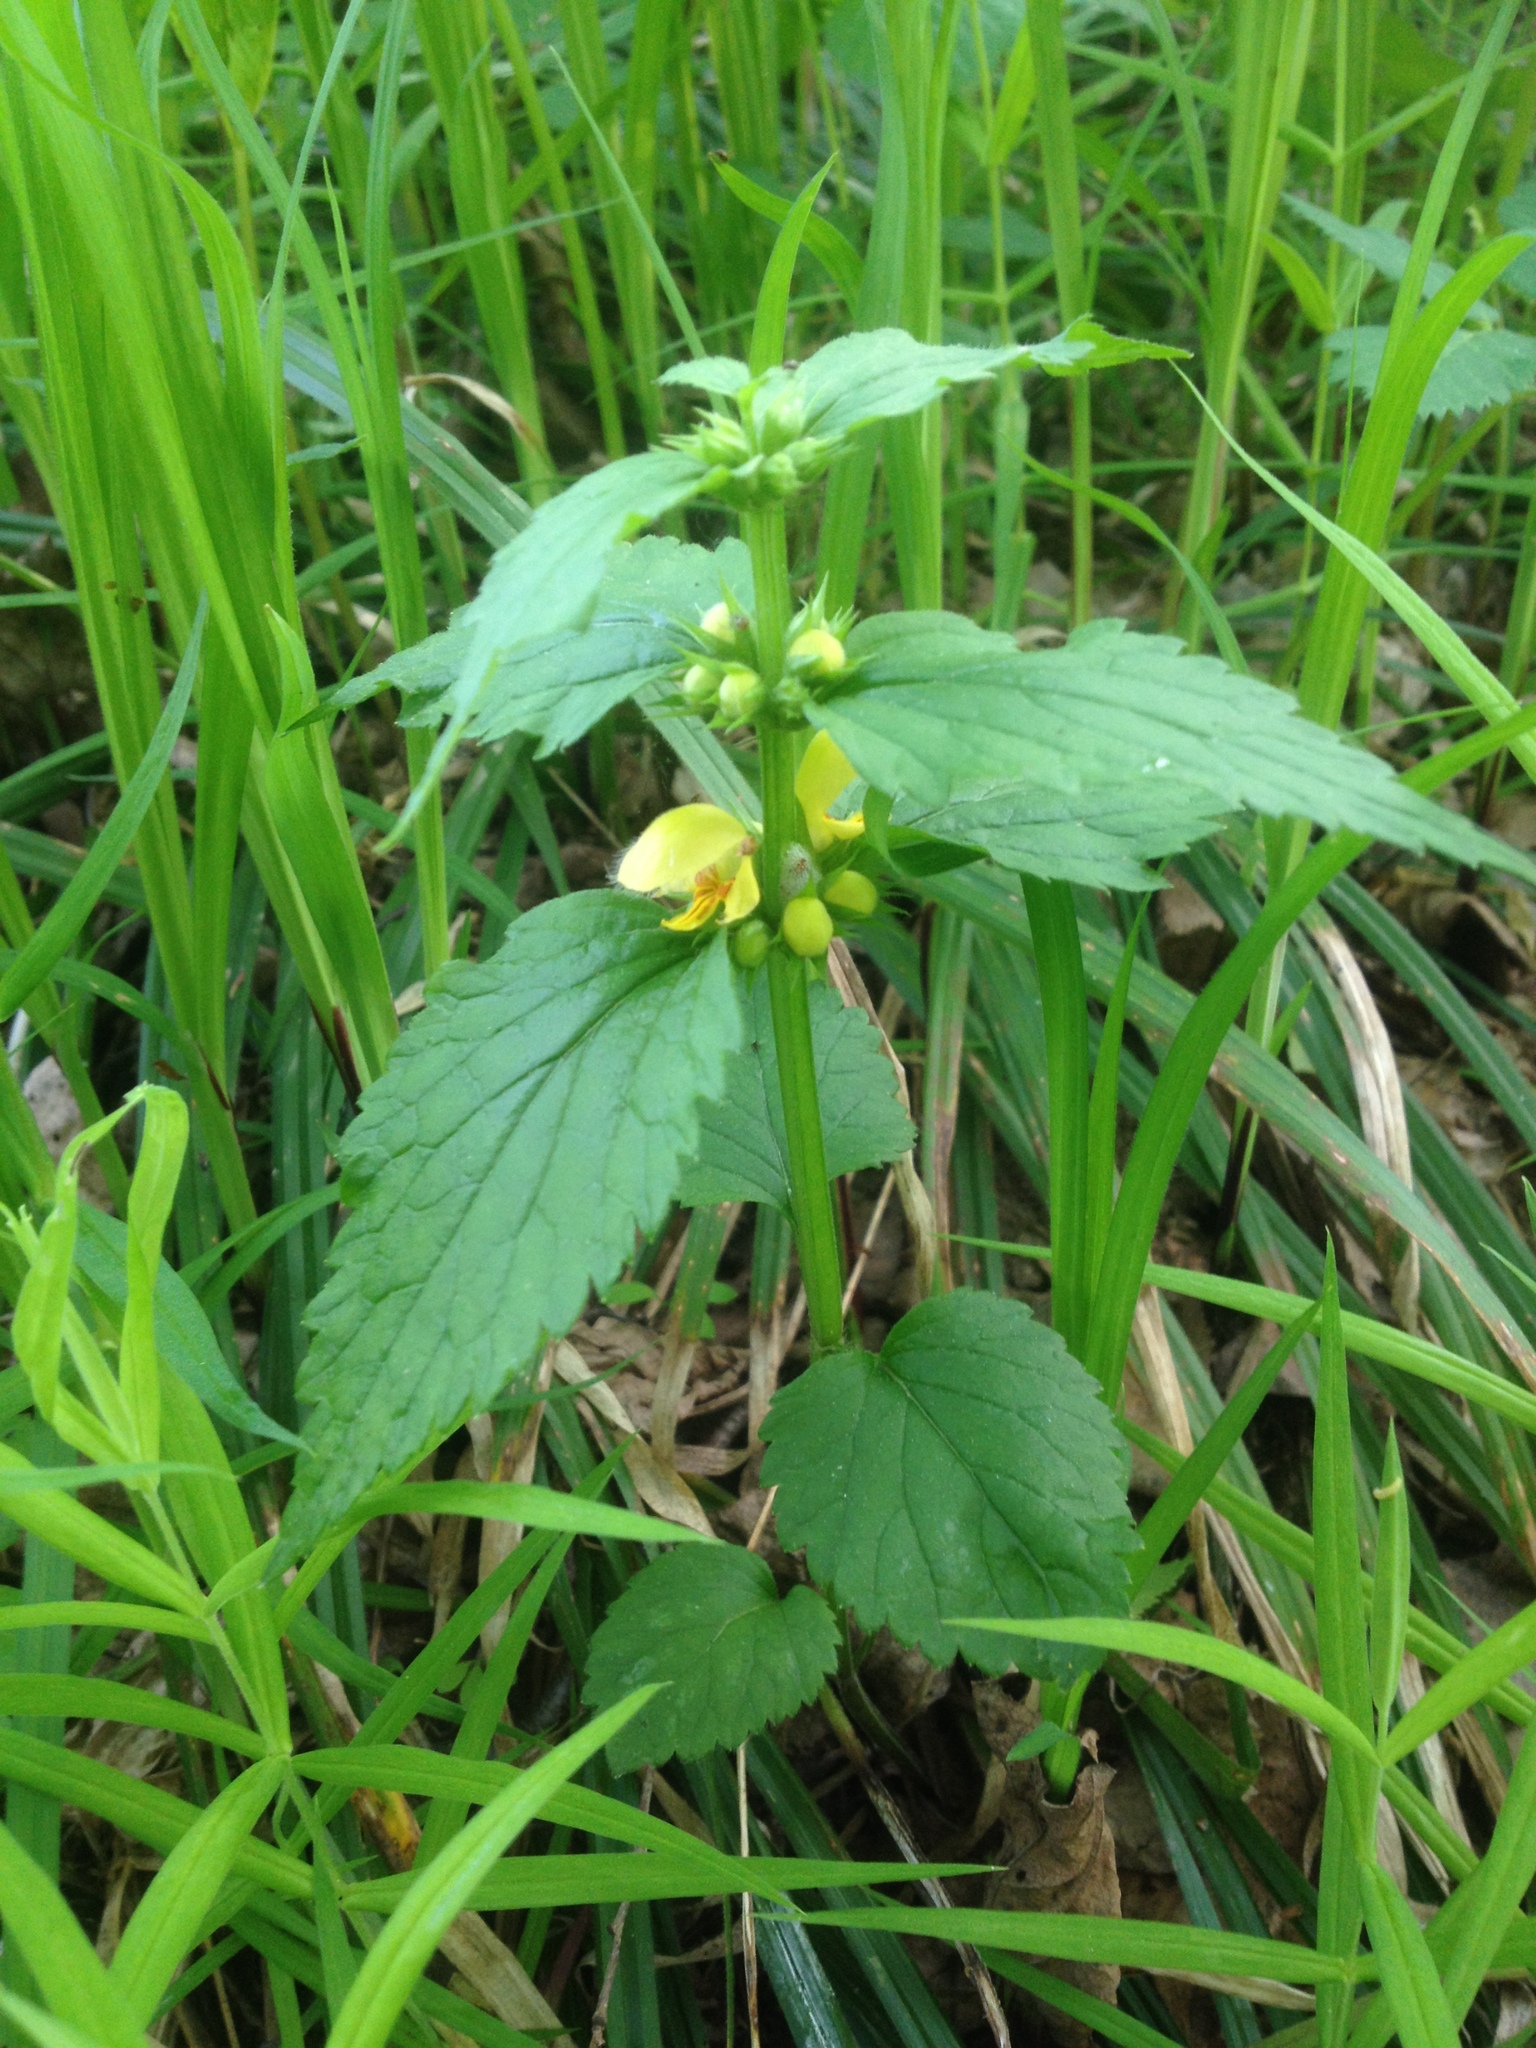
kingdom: Plantae
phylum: Tracheophyta
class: Magnoliopsida
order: Lamiales
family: Lamiaceae
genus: Lamium
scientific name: Lamium galeobdolon
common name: Yellow archangel
